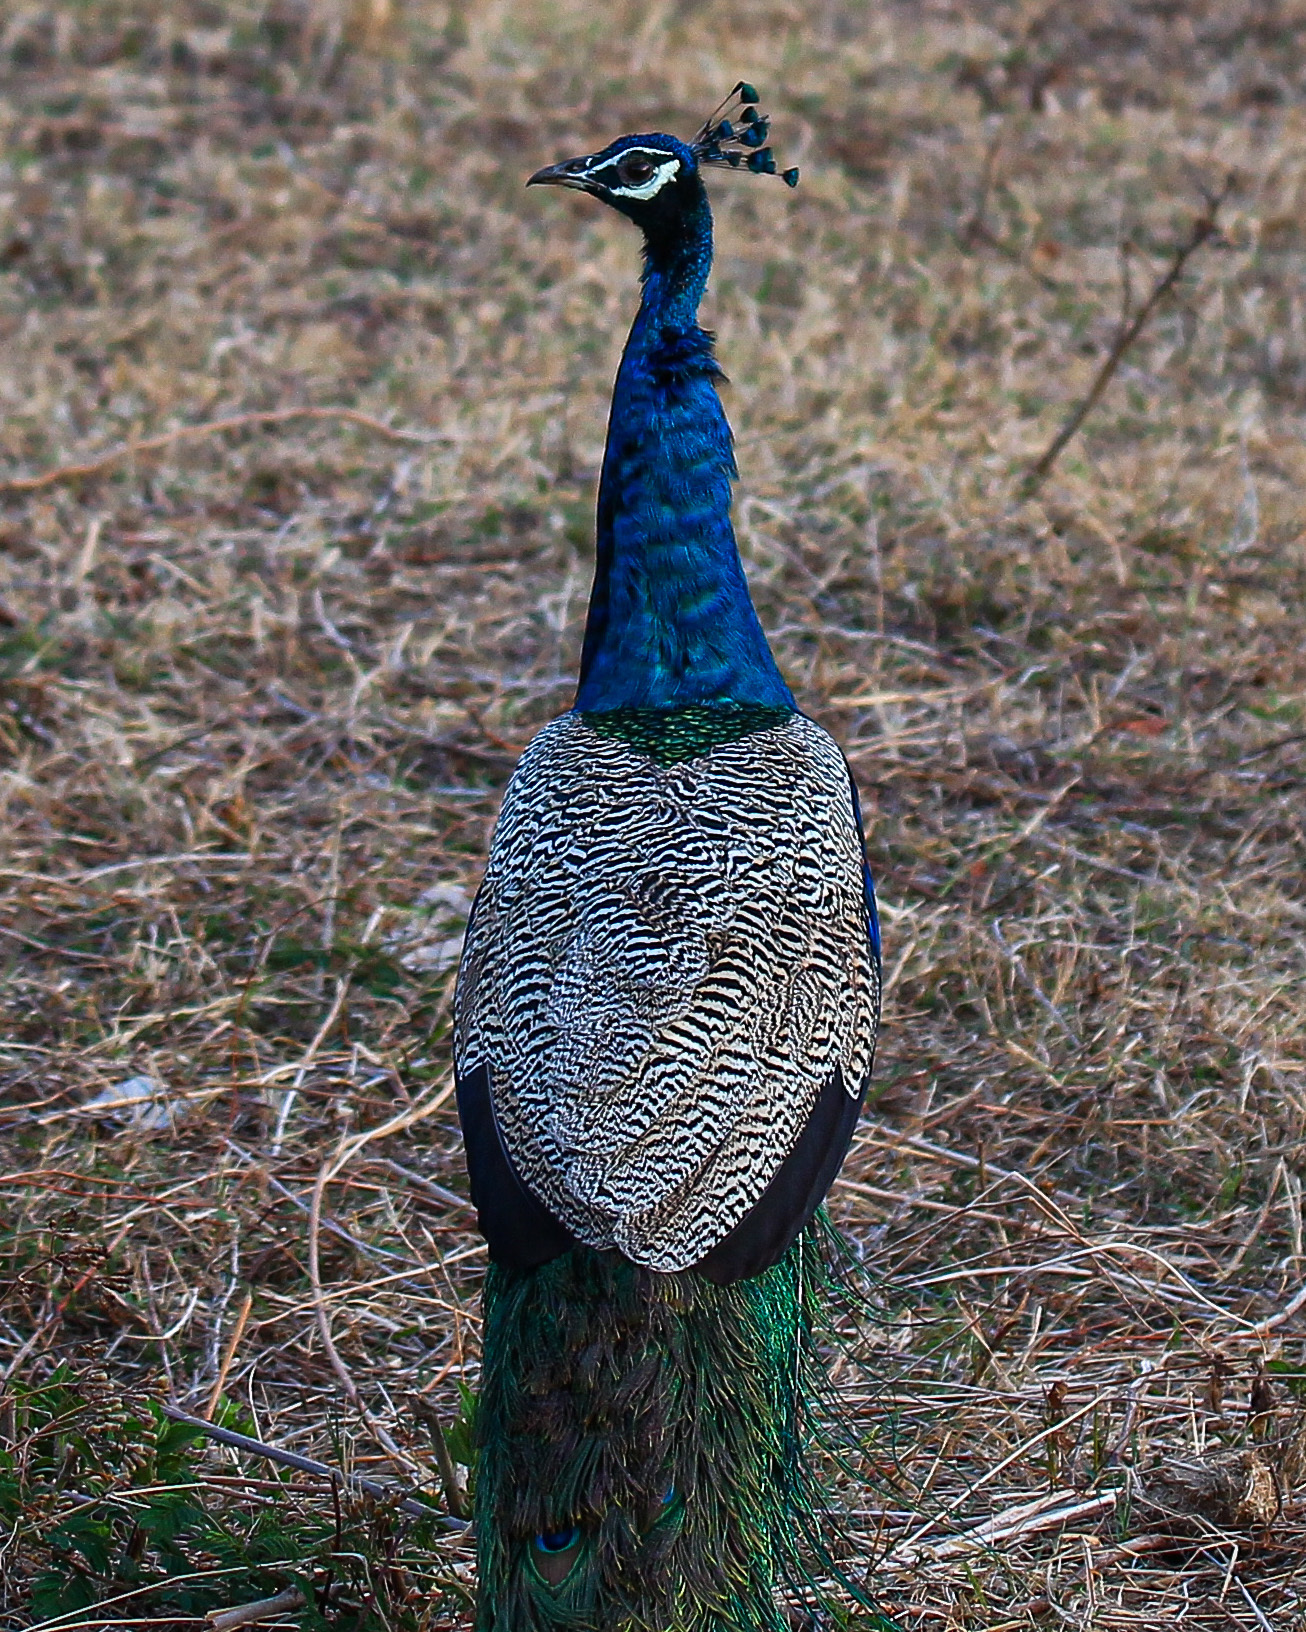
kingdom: Animalia
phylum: Chordata
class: Aves
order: Galliformes
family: Phasianidae
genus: Pavo
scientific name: Pavo cristatus
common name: Indian peafowl
